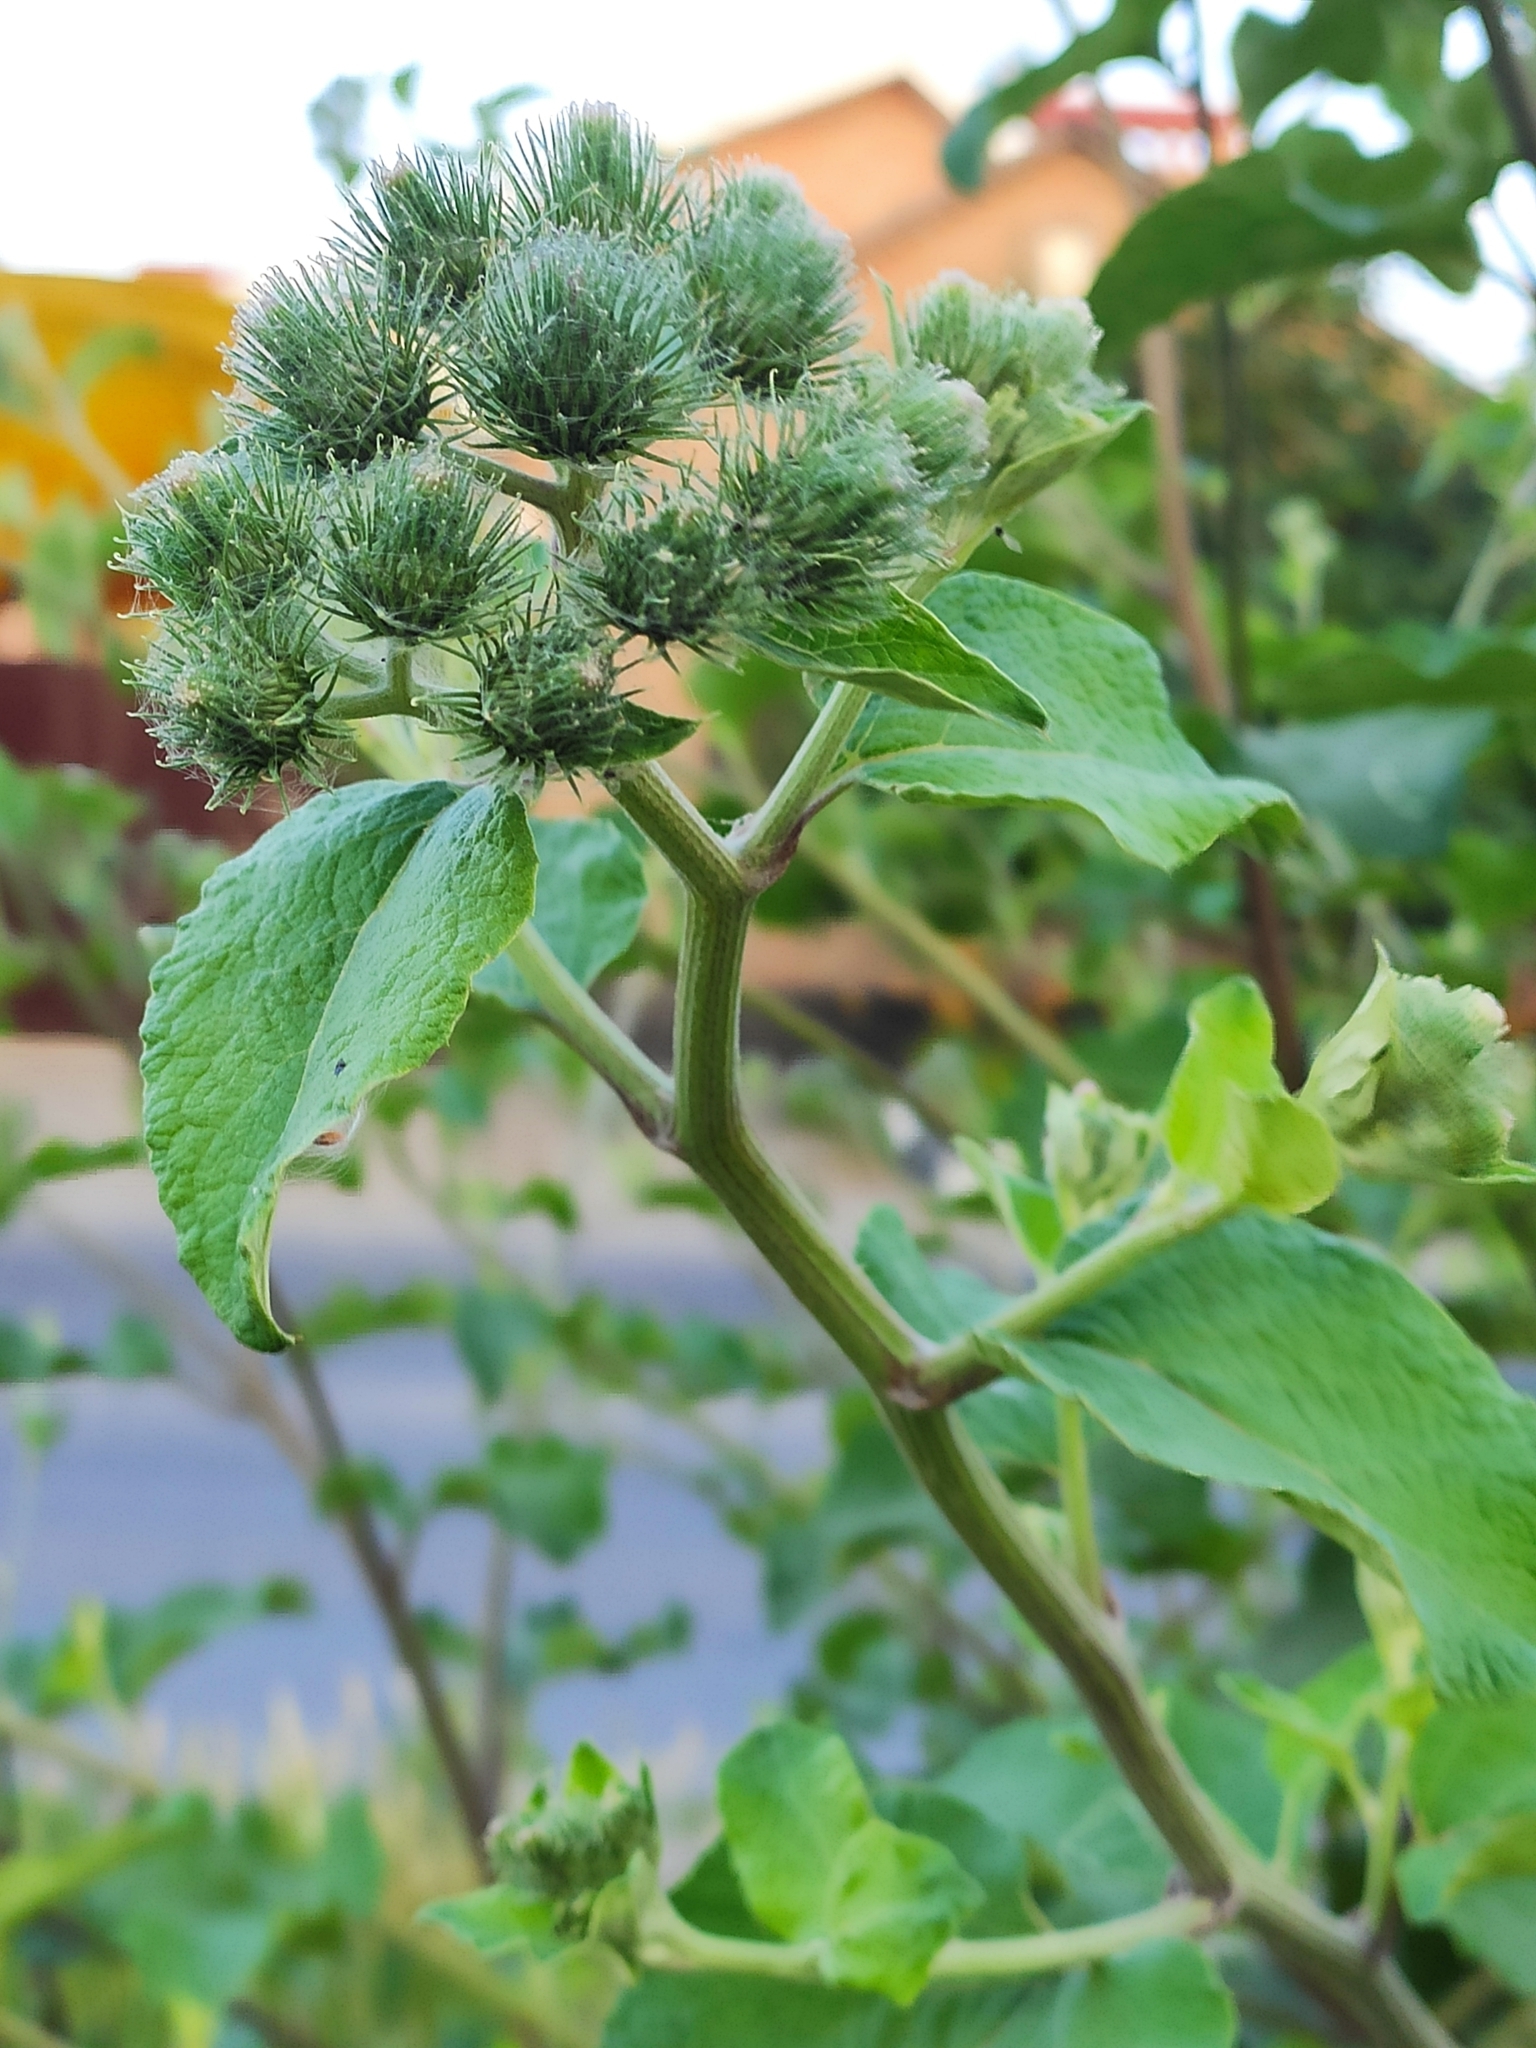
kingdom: Plantae
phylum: Tracheophyta
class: Magnoliopsida
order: Asterales
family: Asteraceae
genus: Arctium
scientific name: Arctium tomentosum
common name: Woolly burdock
